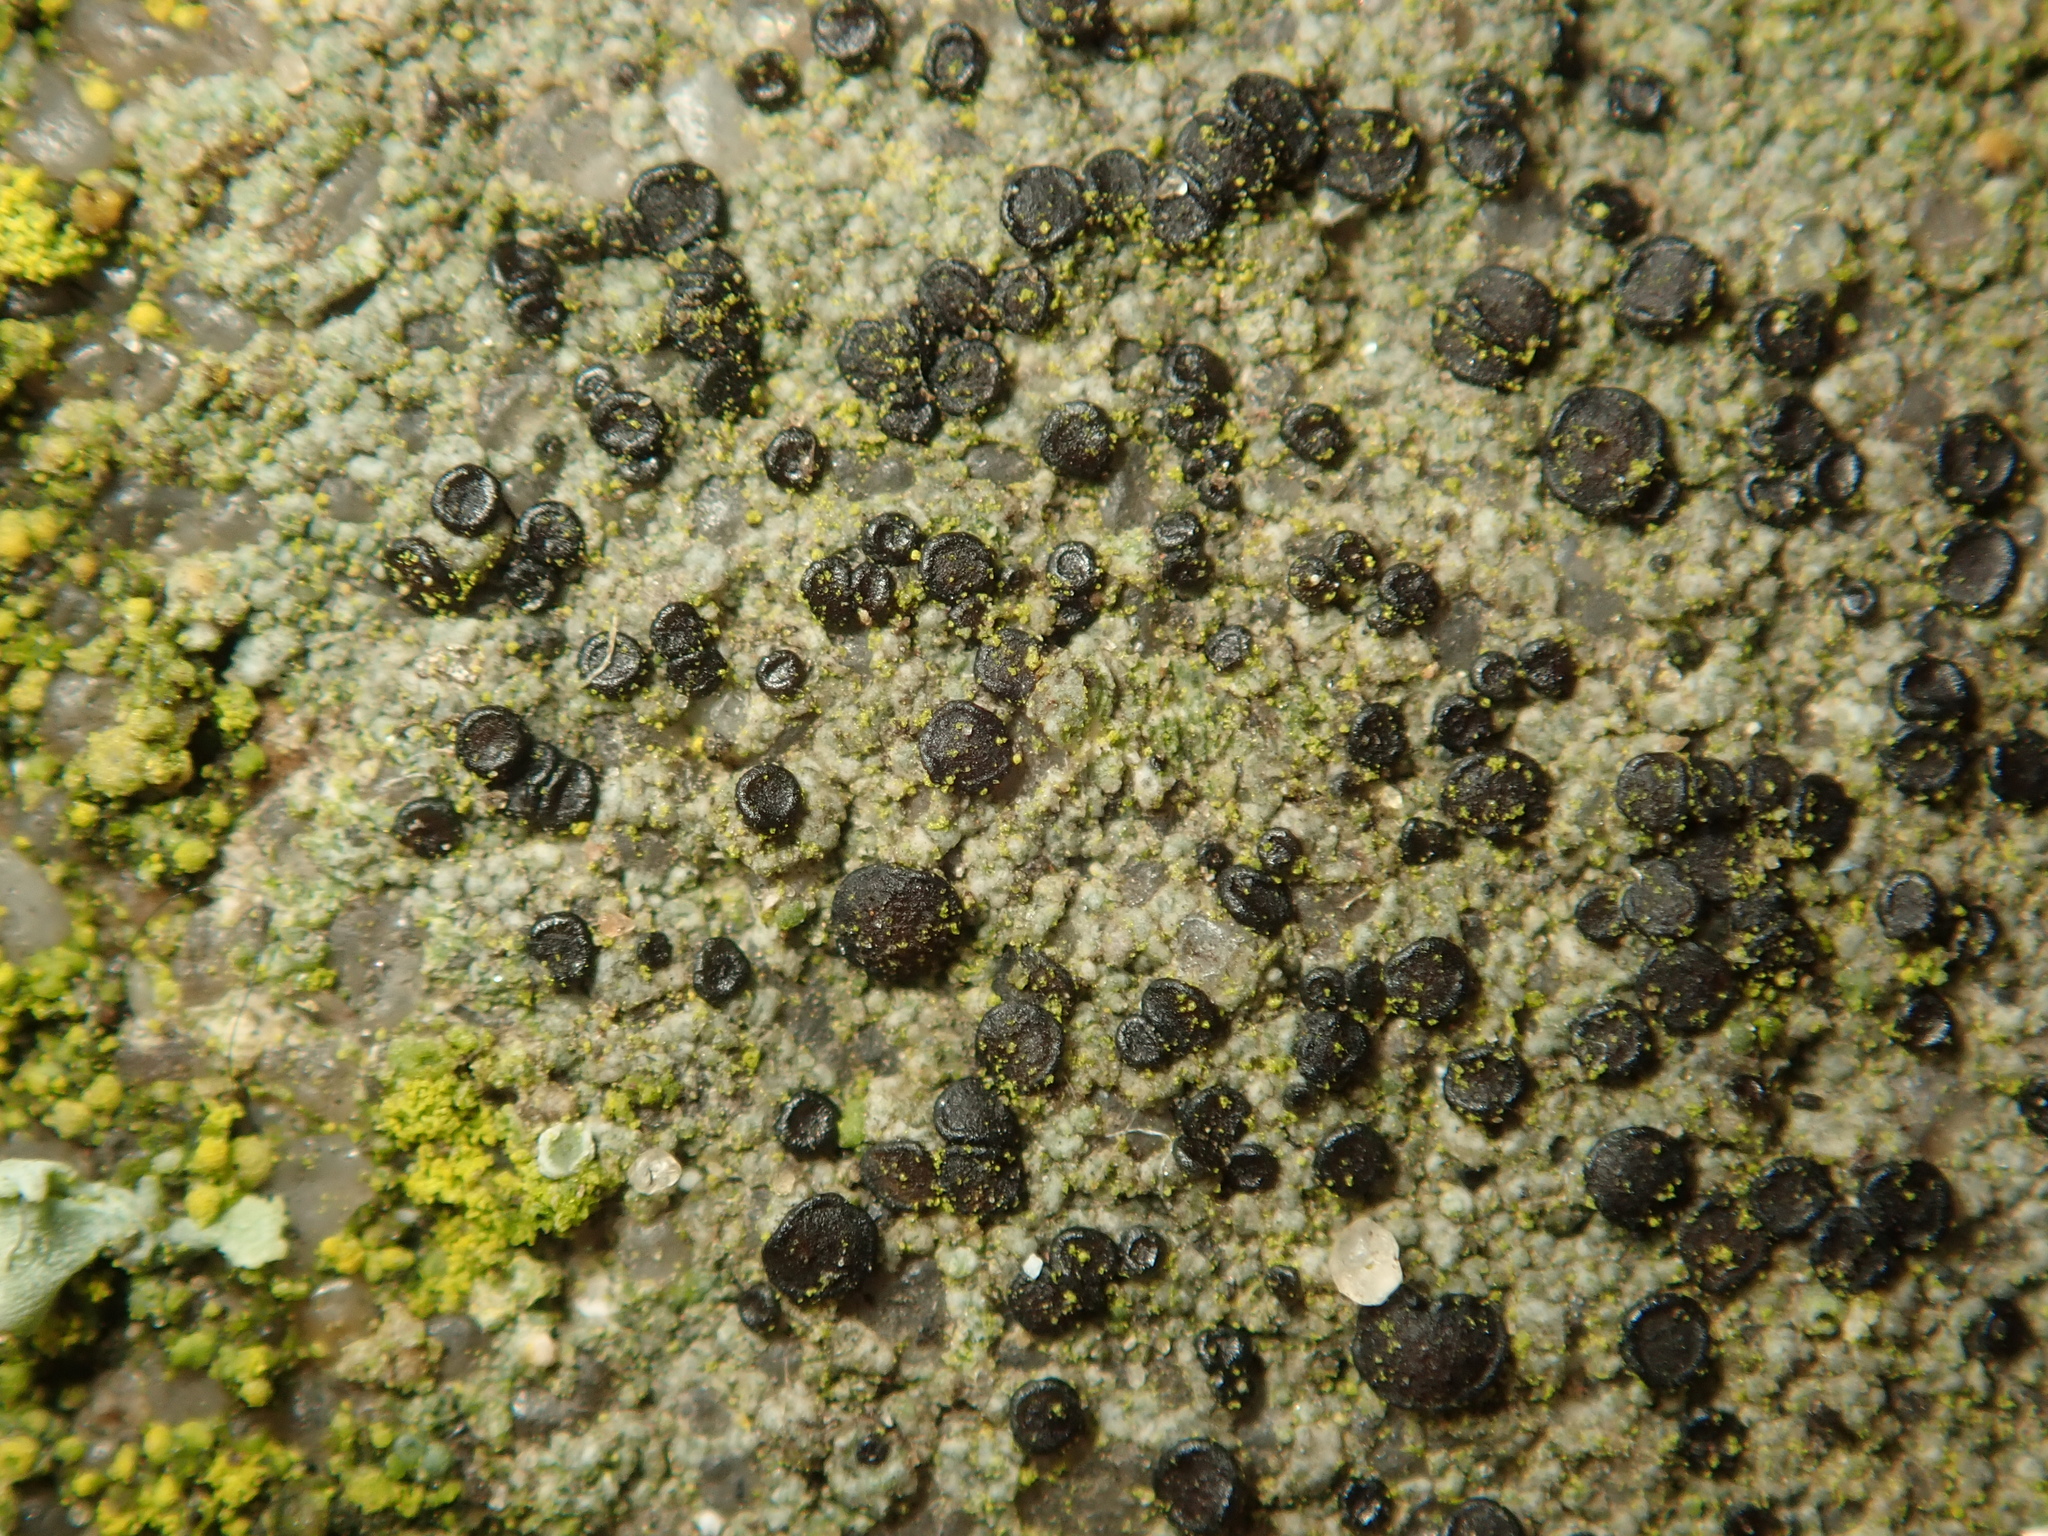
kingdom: Fungi
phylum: Ascomycota
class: Lecanoromycetes
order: Lecanorales
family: Lecanoraceae
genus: Lecidella
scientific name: Lecidella stigmatea
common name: Limestone disc lichen
